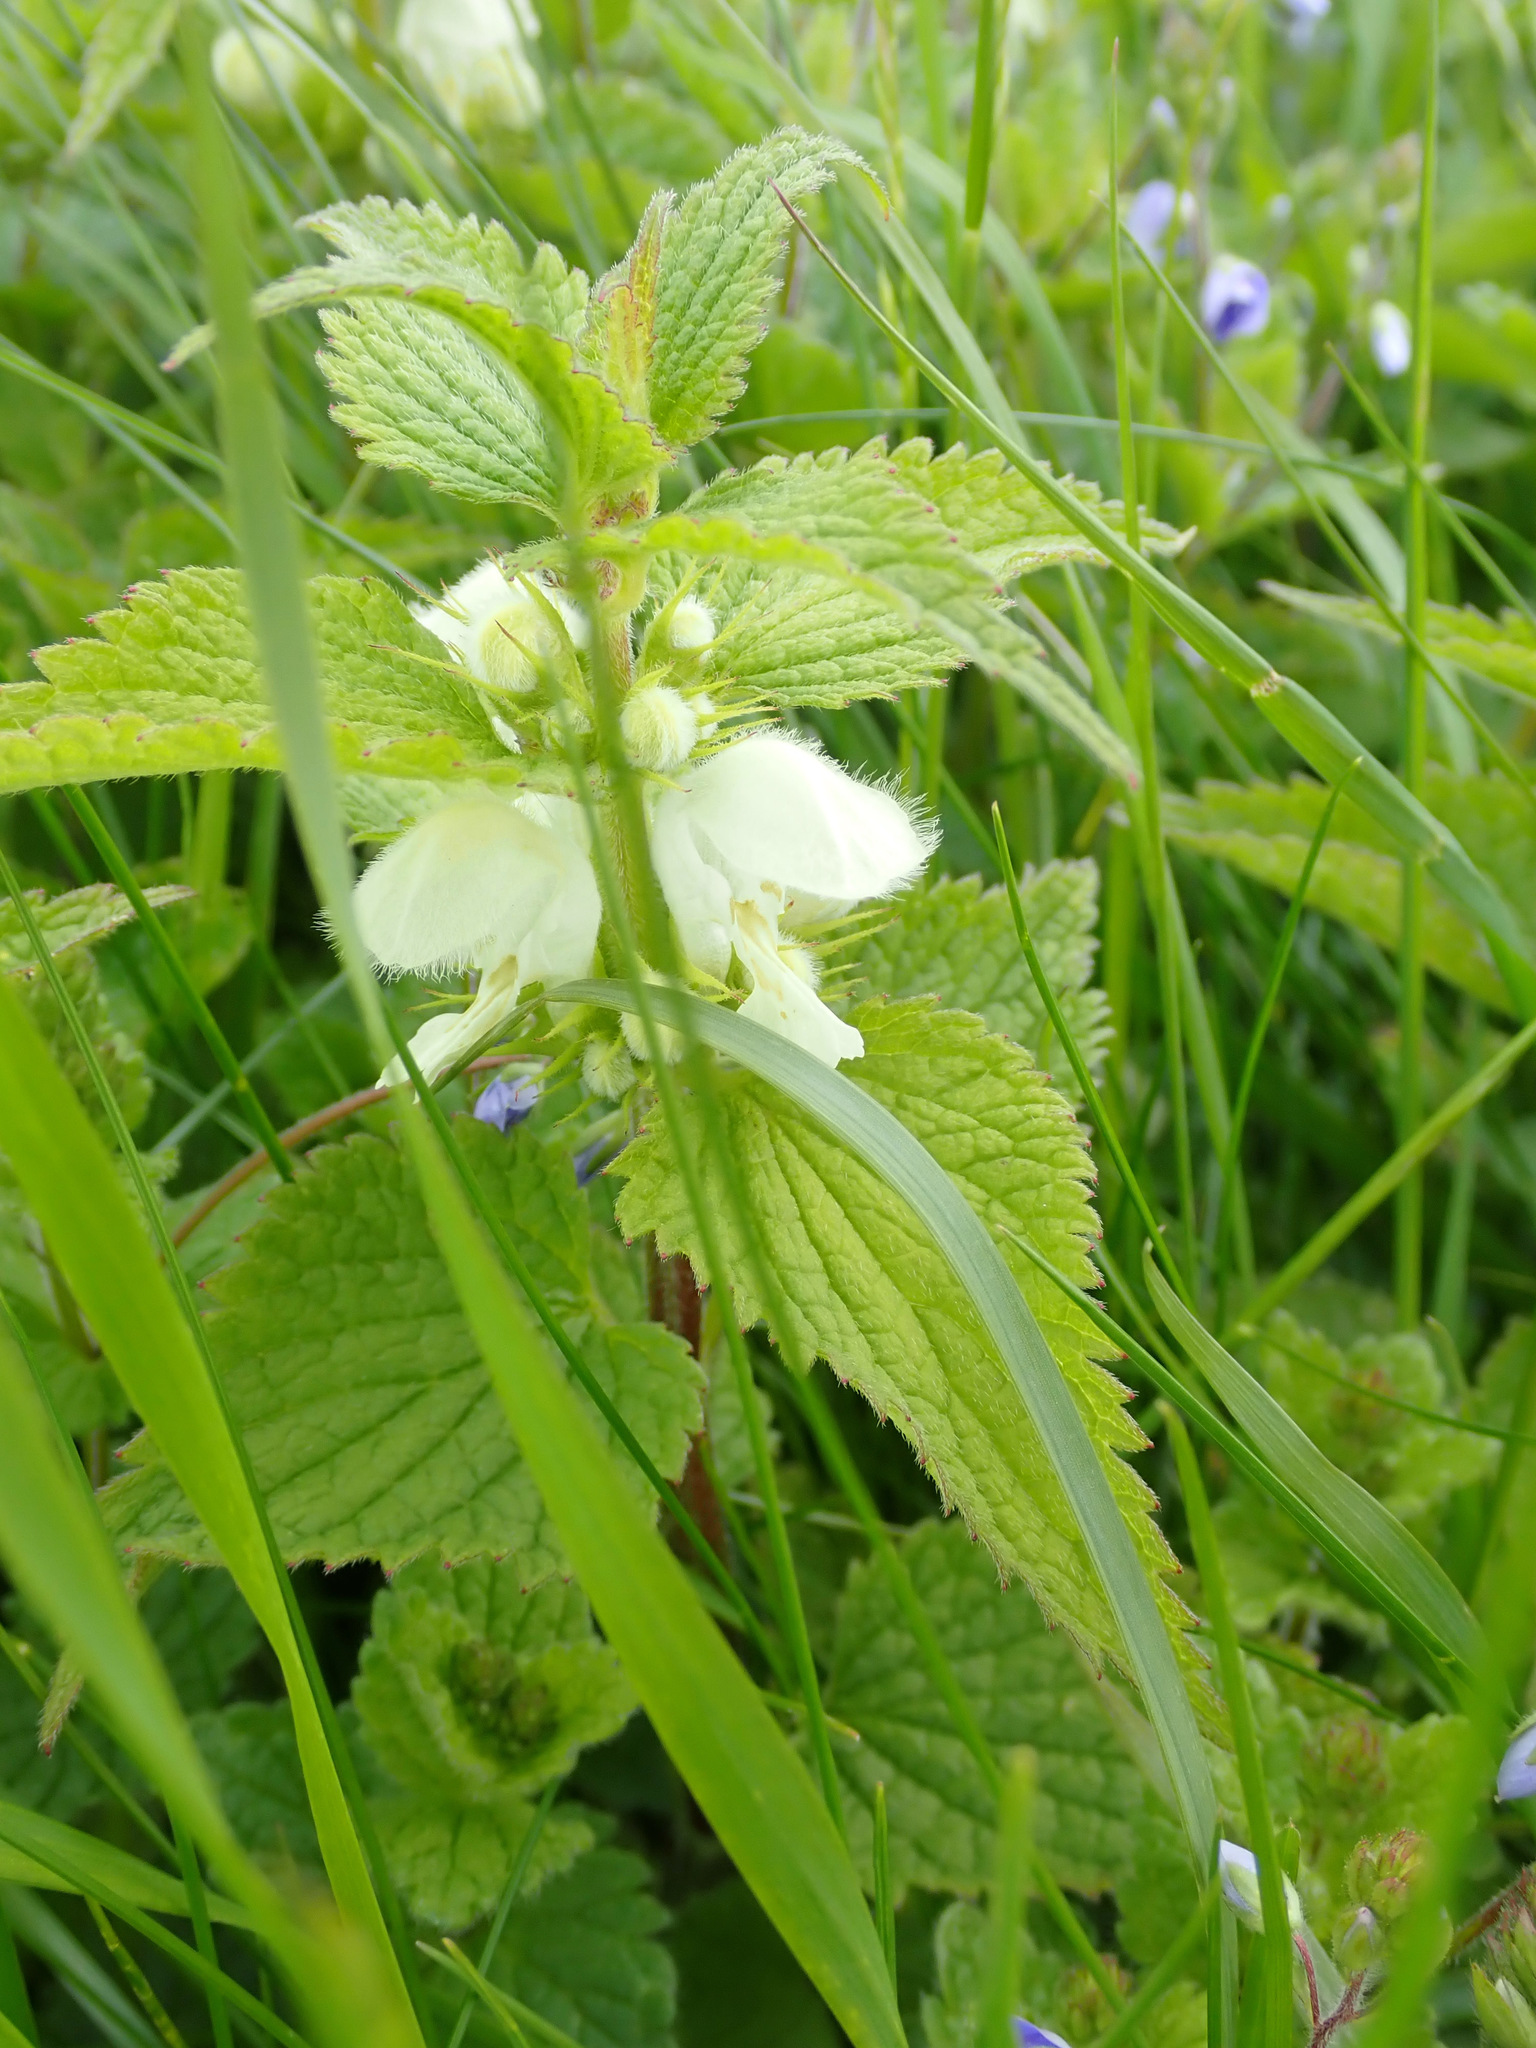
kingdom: Plantae
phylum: Tracheophyta
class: Magnoliopsida
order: Lamiales
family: Lamiaceae
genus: Lamium
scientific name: Lamium album
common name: White dead-nettle
